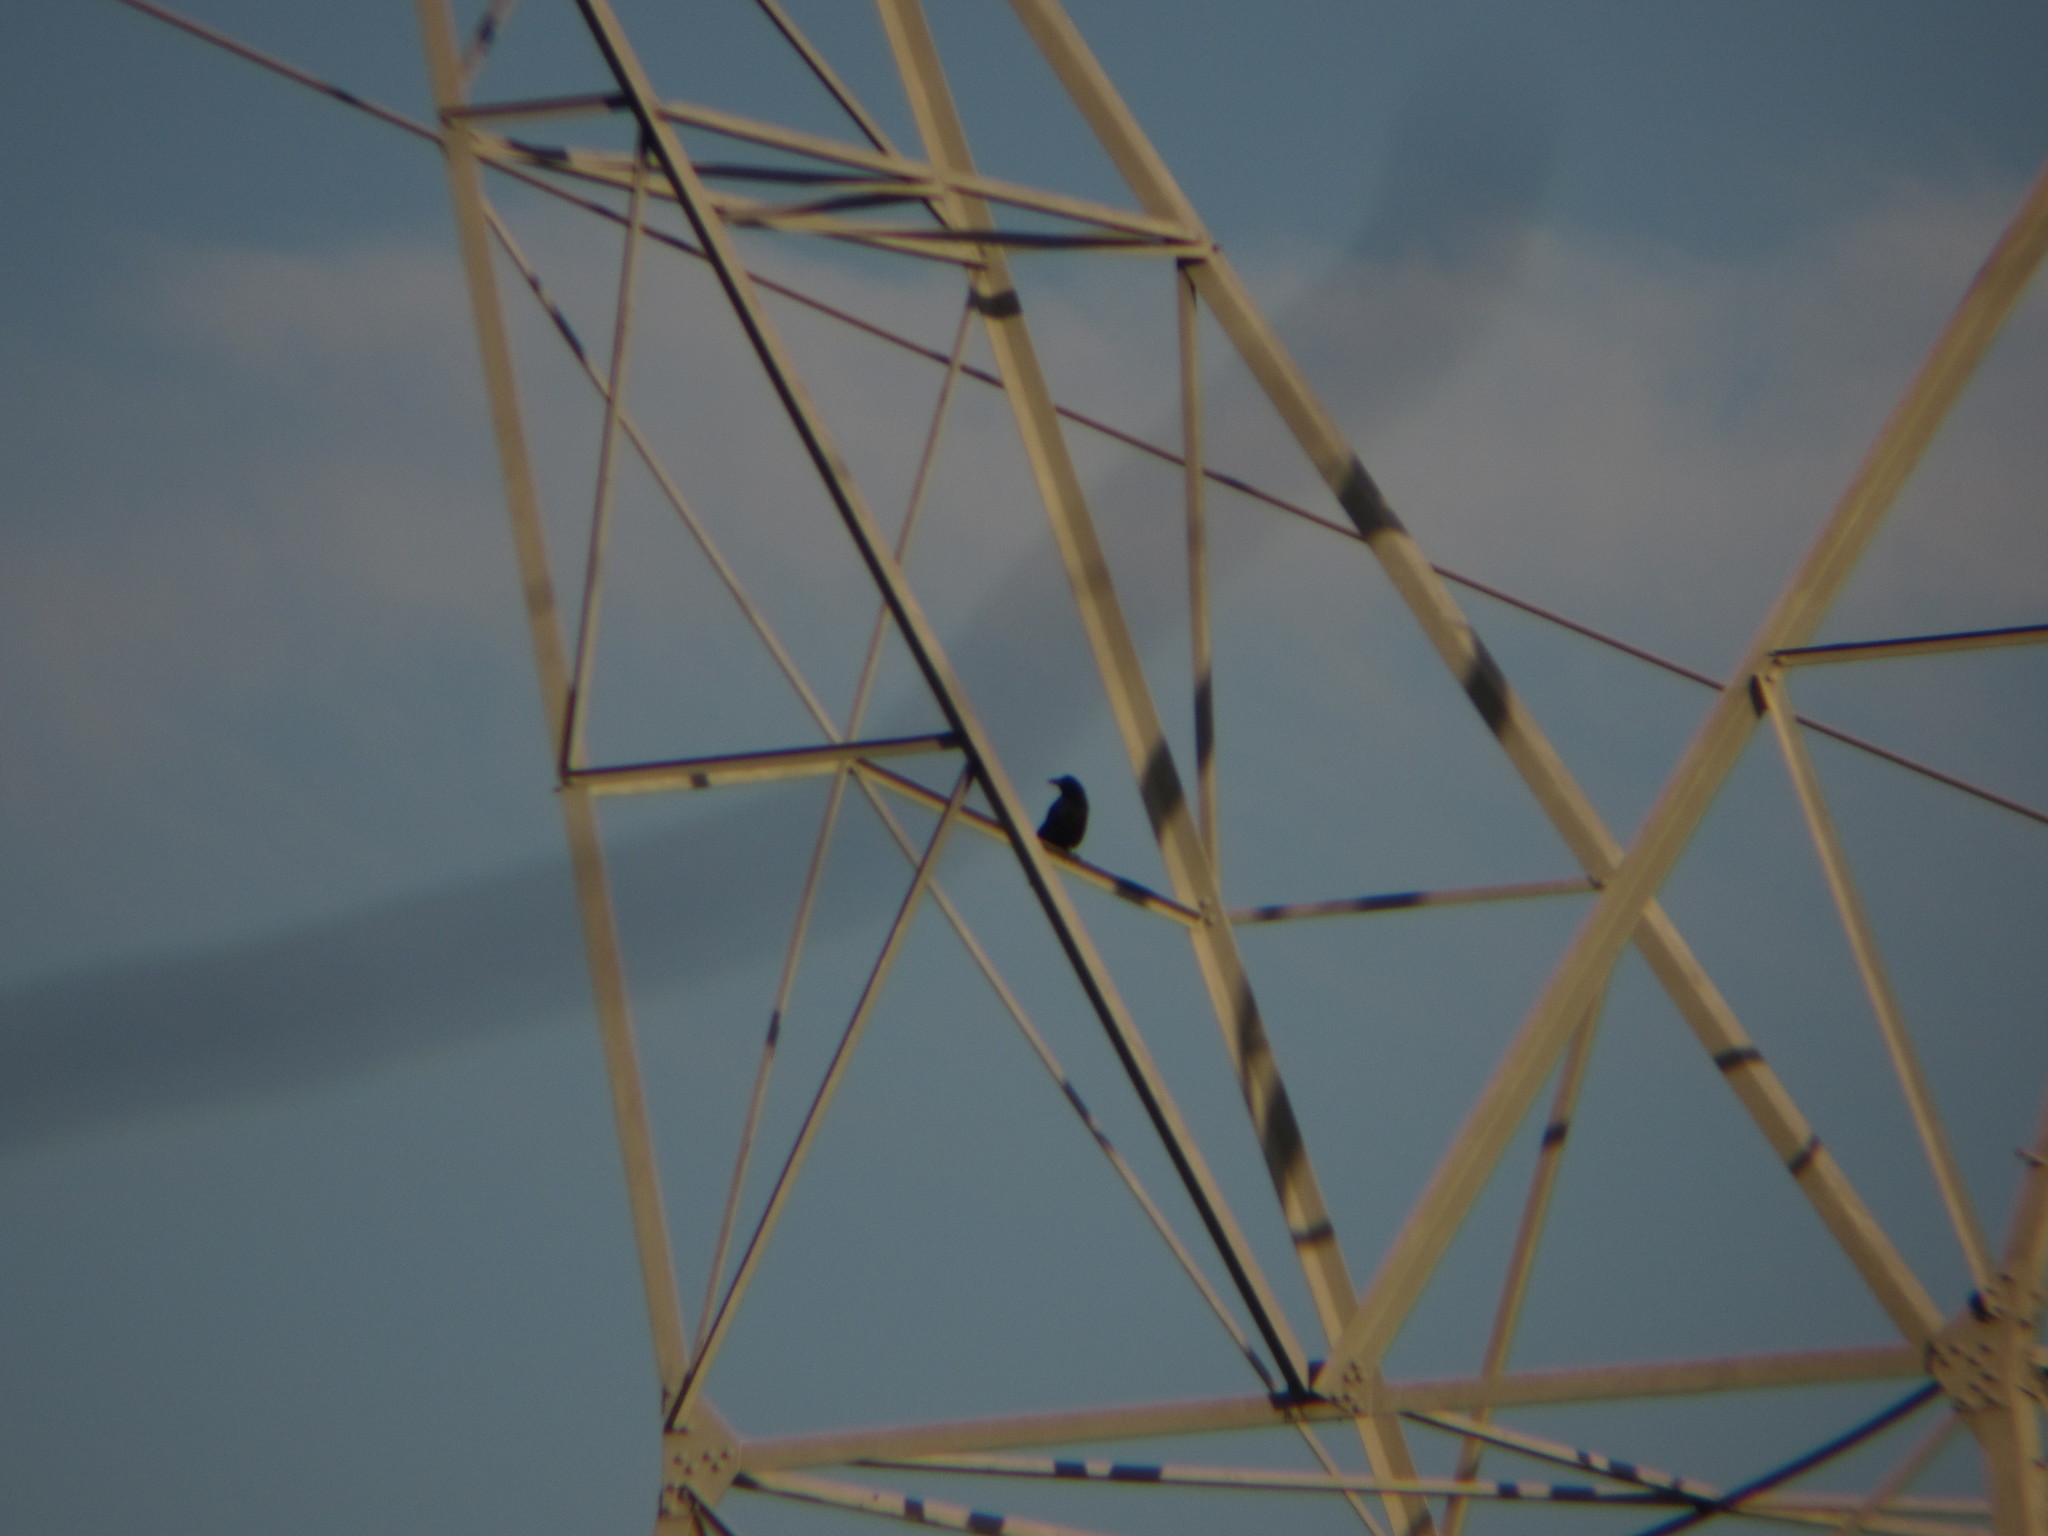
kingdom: Animalia
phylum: Chordata
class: Aves
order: Passeriformes
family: Corvidae
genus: Corvus
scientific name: Corvus
